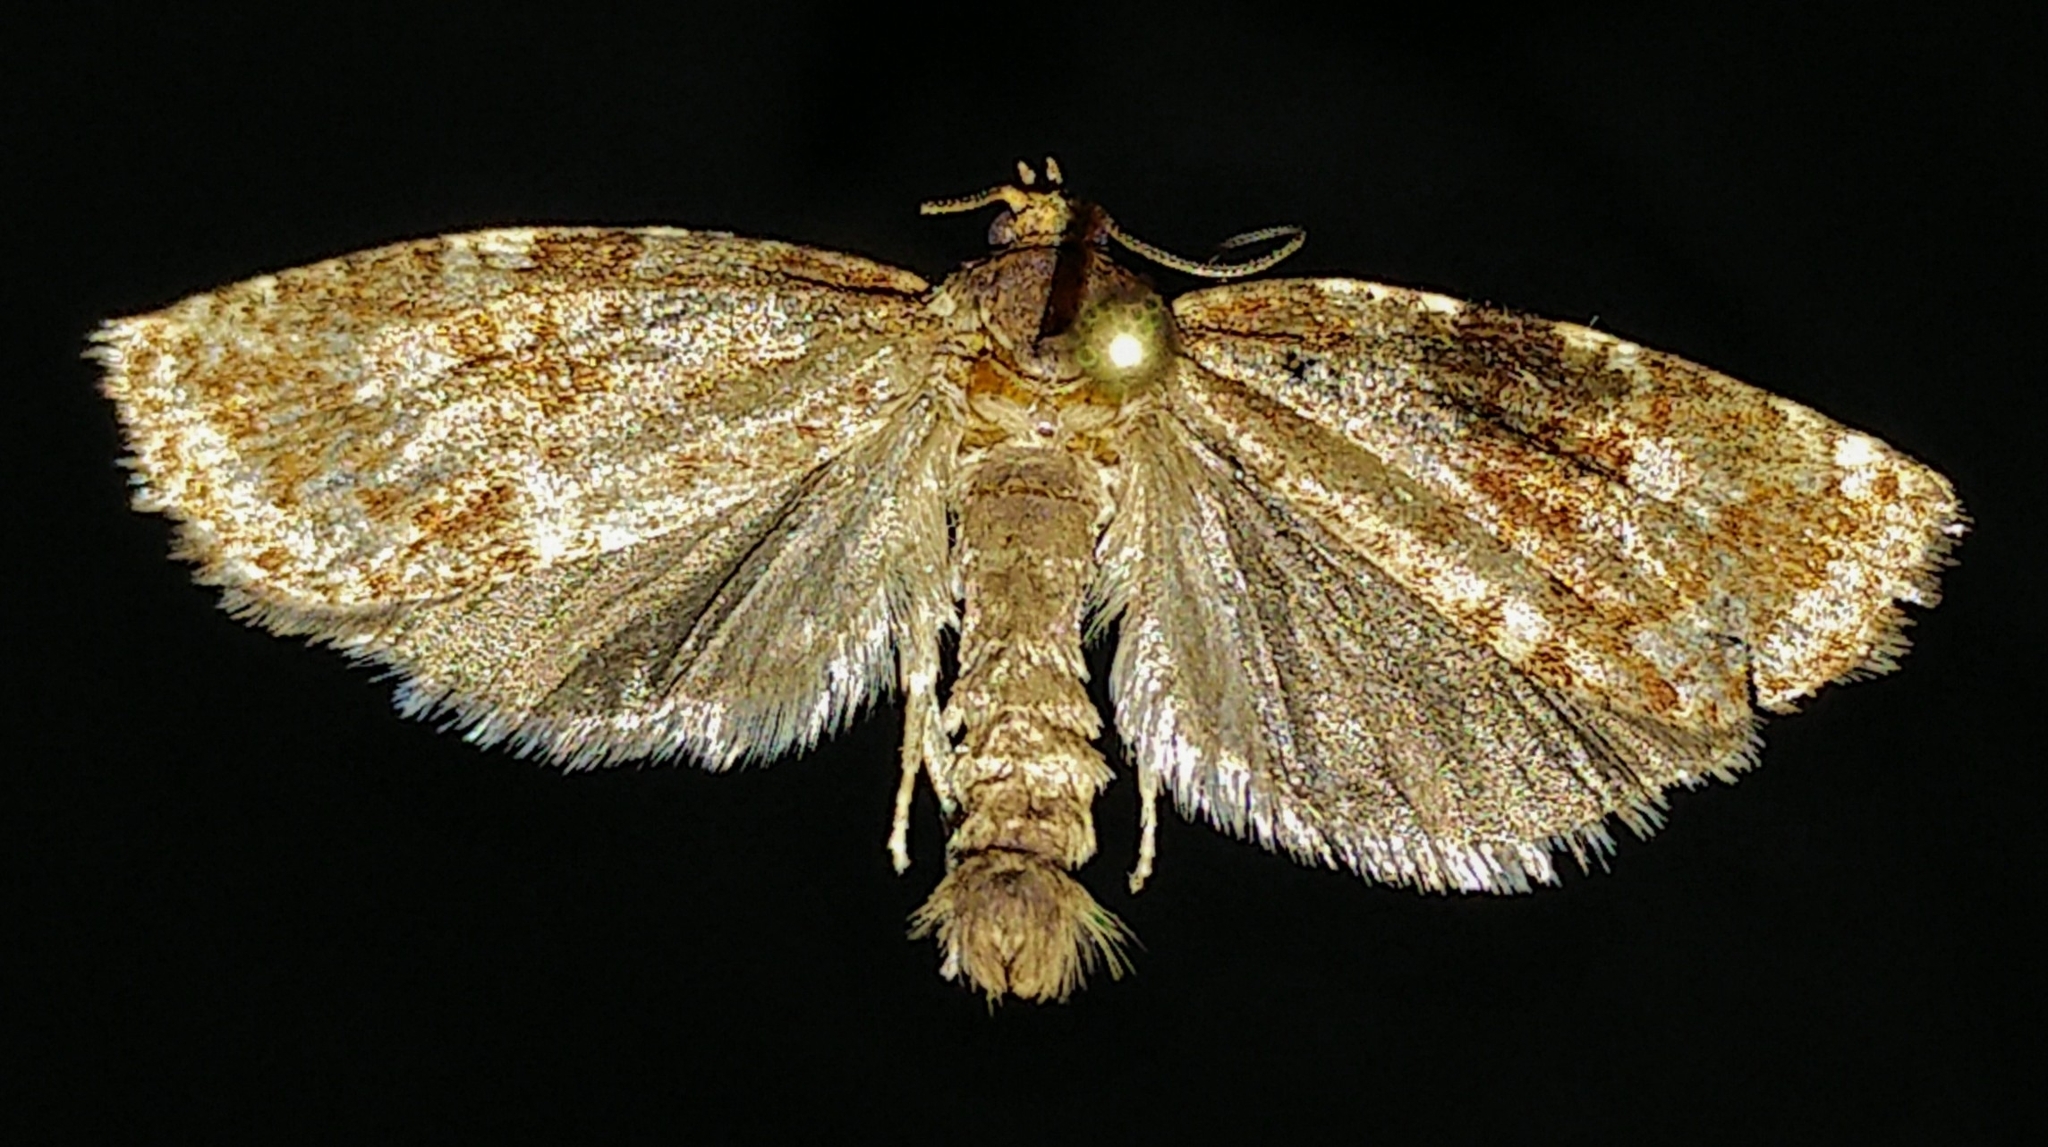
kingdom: Animalia
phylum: Arthropoda
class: Insecta
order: Lepidoptera
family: Tortricidae
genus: Choristoneura
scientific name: Choristoneura pinus
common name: Jack pine budworm
